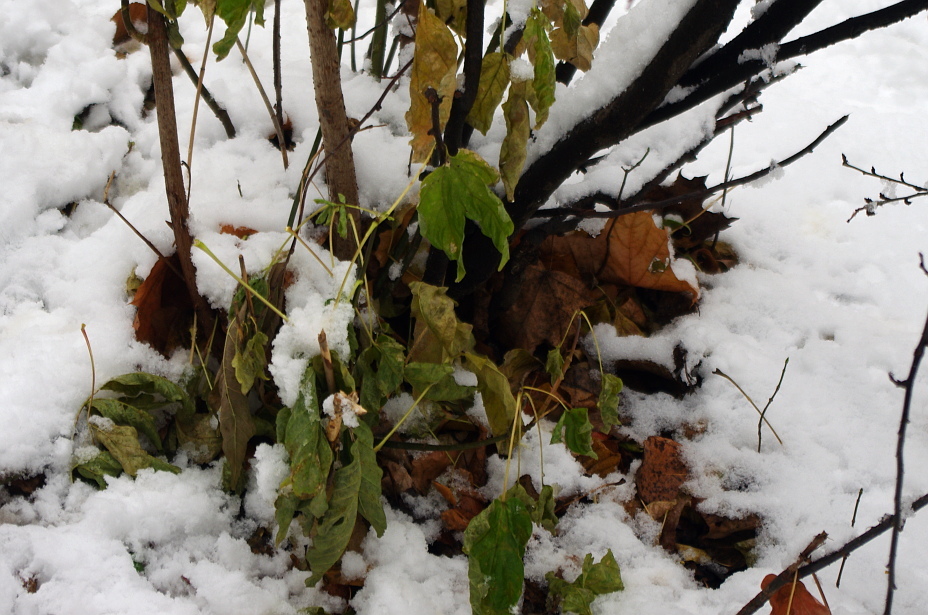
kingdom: Plantae
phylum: Tracheophyta
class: Magnoliopsida
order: Sapindales
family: Sapindaceae
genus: Acer
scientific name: Acer negundo
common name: Ashleaf maple
